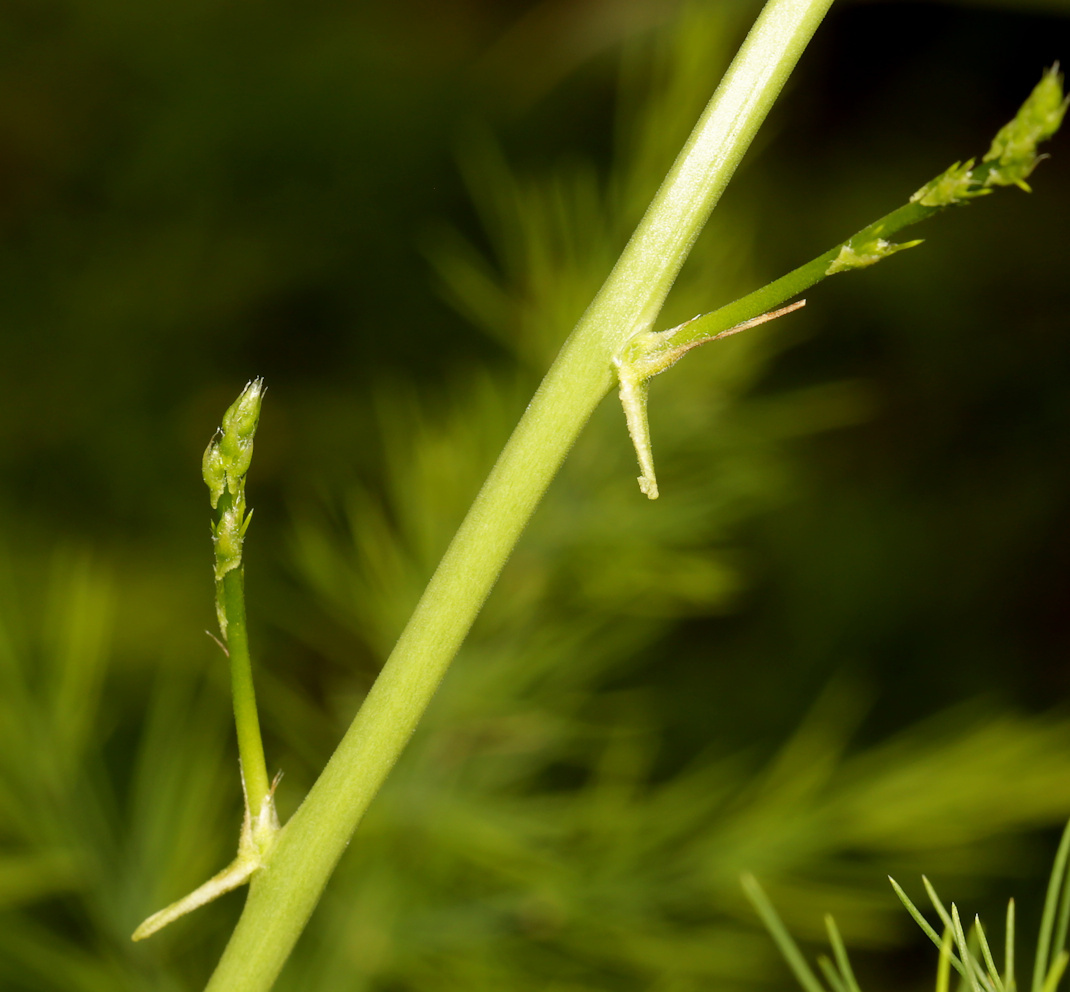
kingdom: Plantae
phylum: Tracheophyta
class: Liliopsida
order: Asparagales
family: Asparagaceae
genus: Asparagus
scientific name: Asparagus africanus
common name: Asparagus-fern
